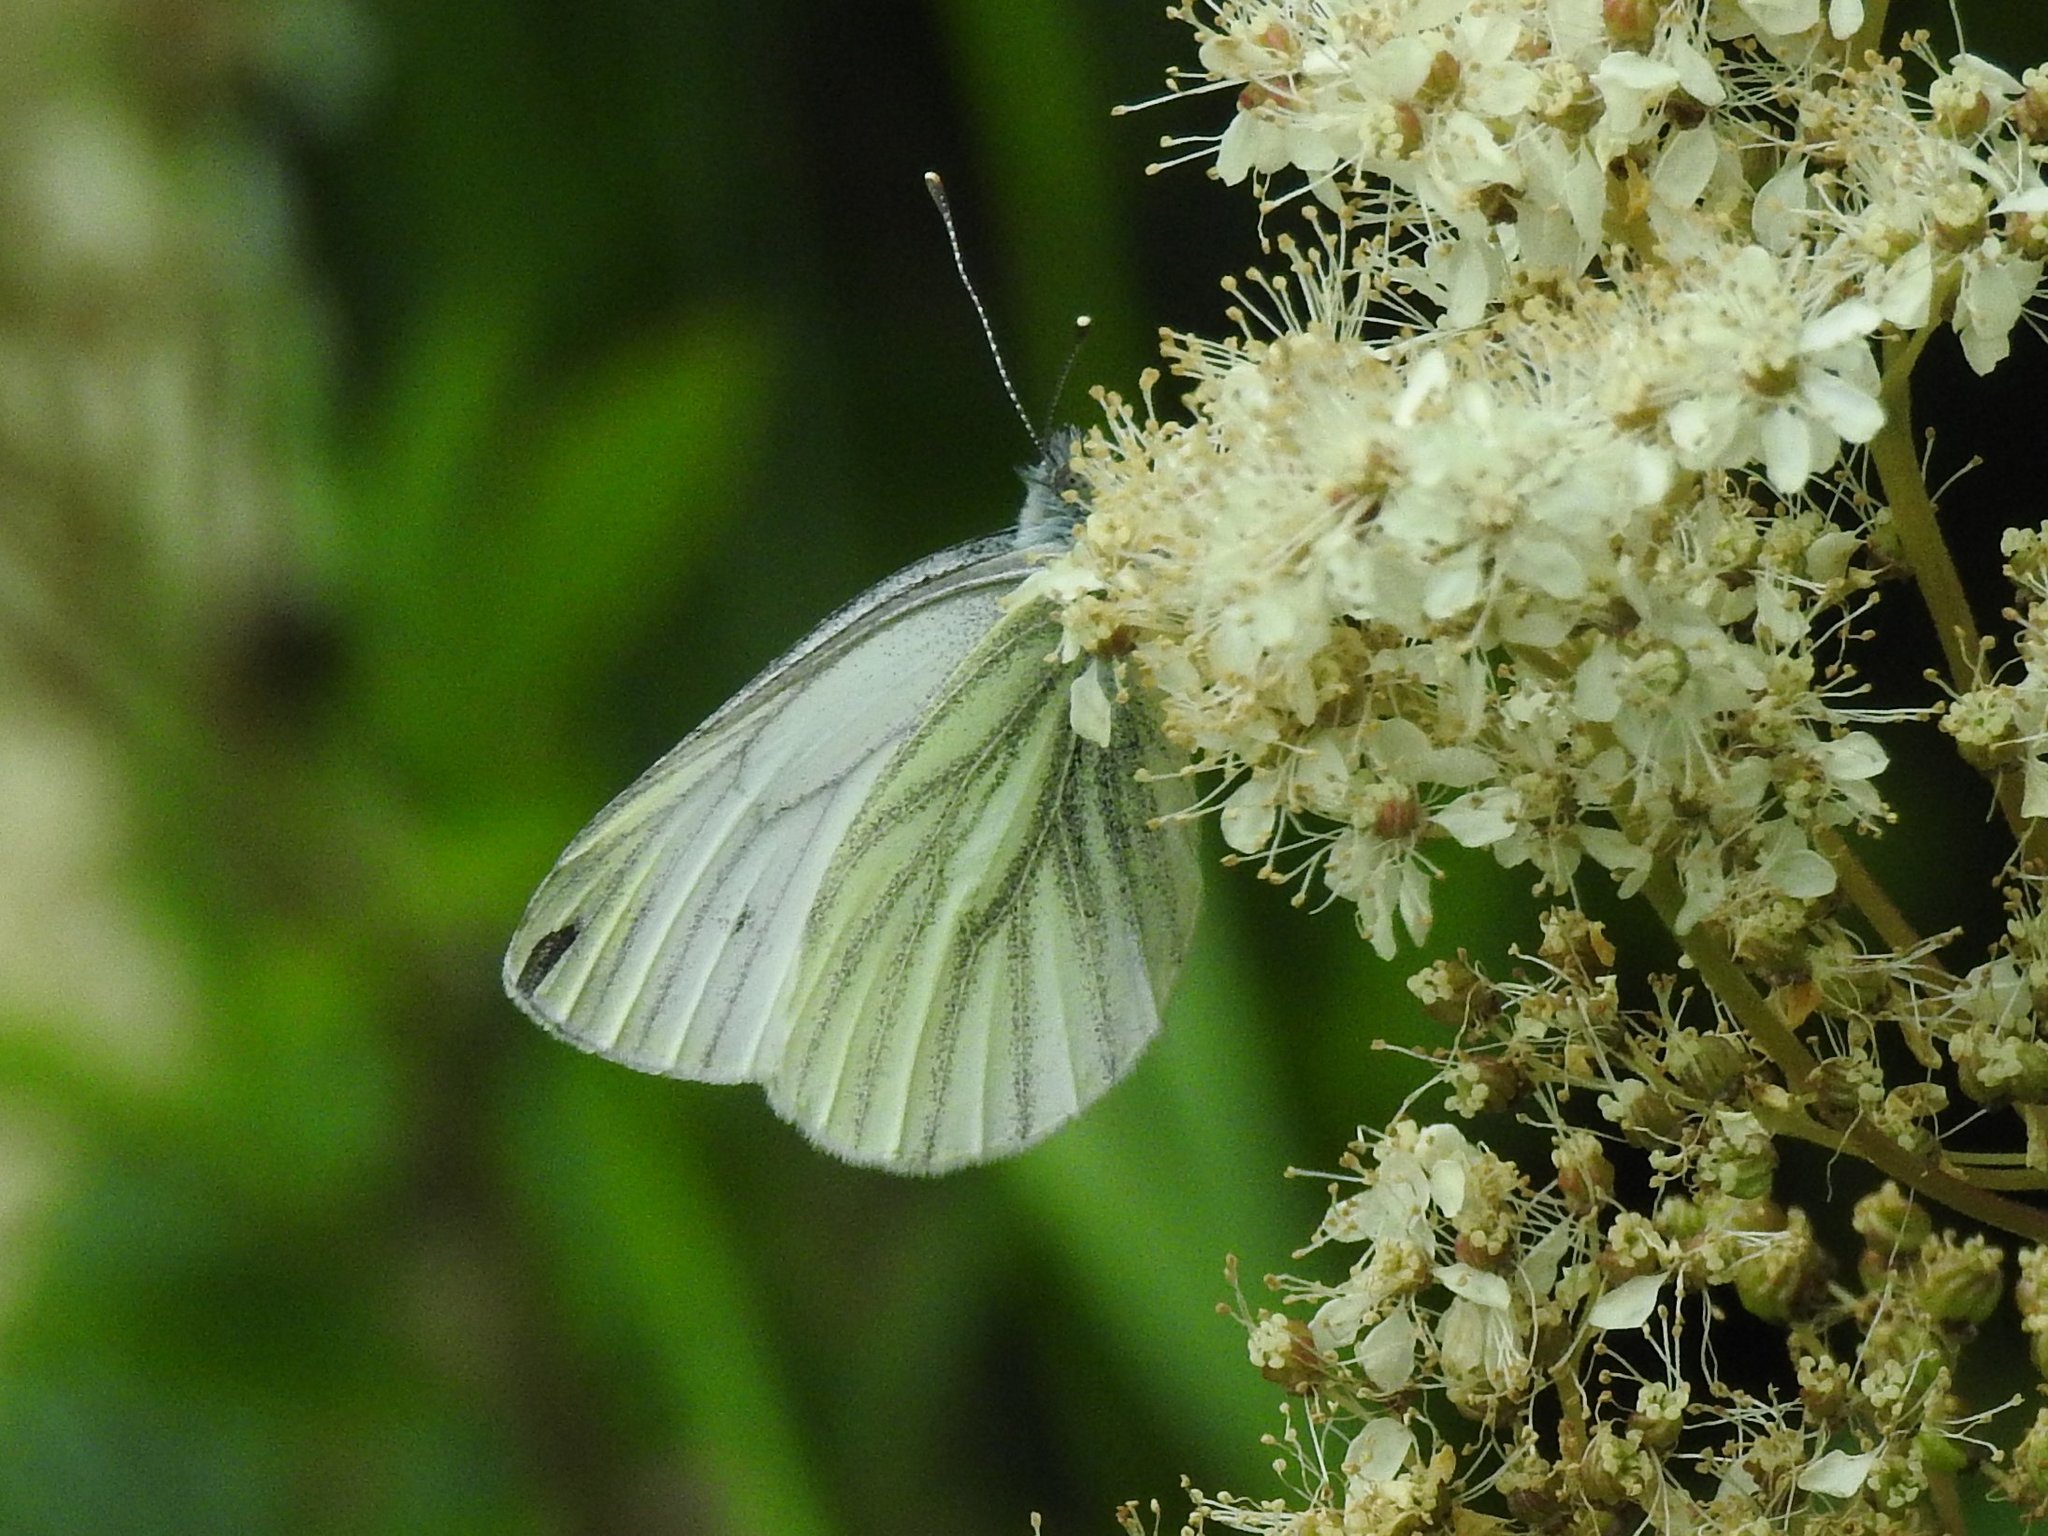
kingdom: Animalia
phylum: Arthropoda
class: Insecta
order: Lepidoptera
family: Pieridae
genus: Pieris
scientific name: Pieris napi
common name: Green-veined white
